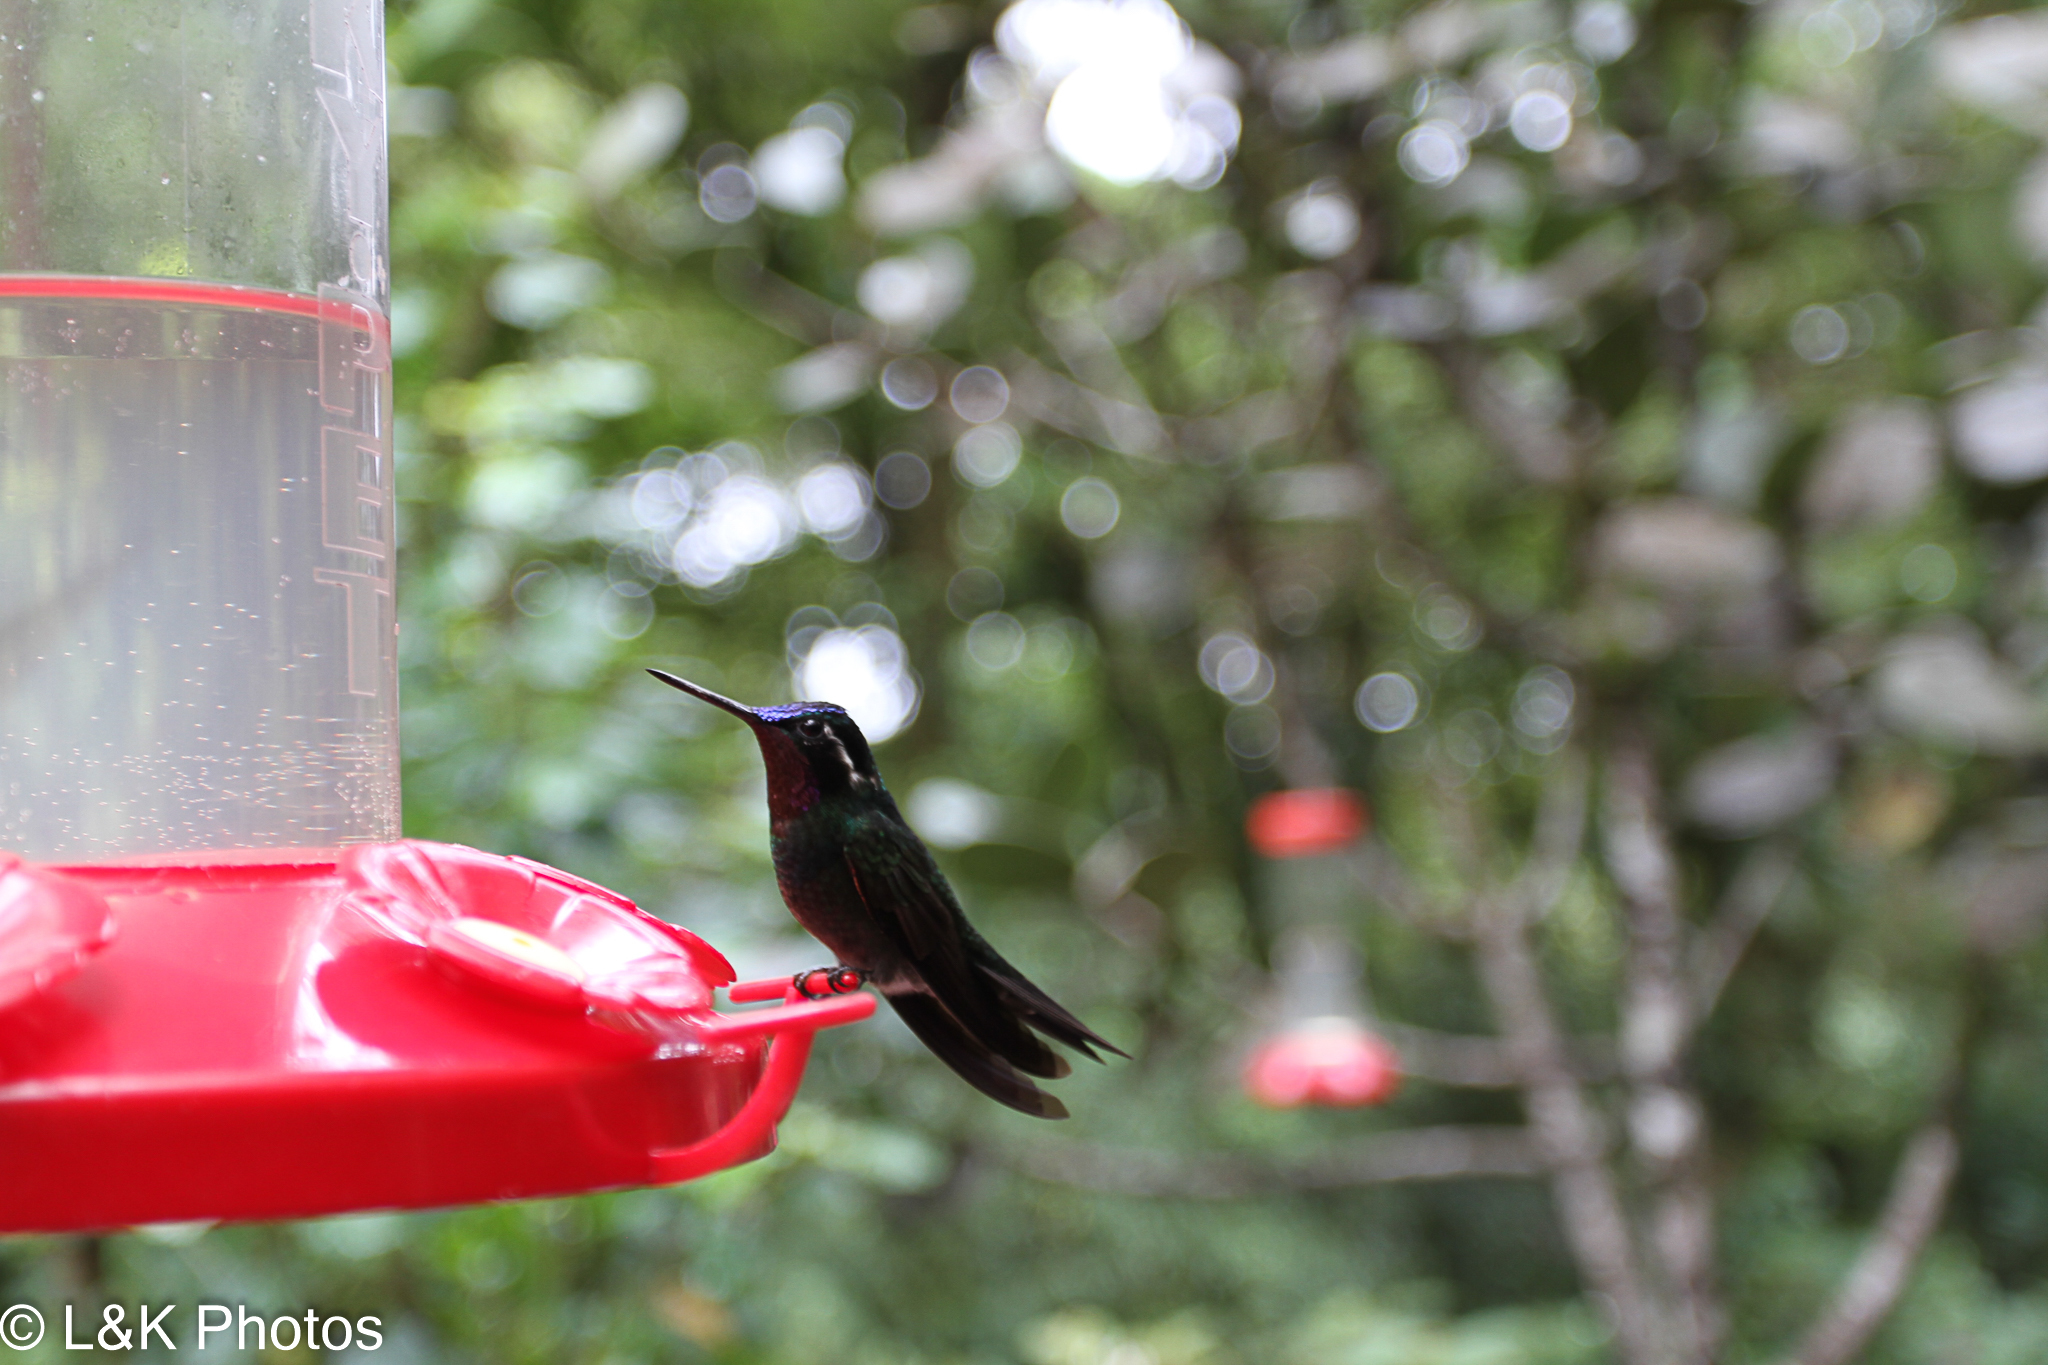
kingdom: Animalia
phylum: Chordata
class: Aves
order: Apodiformes
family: Trochilidae
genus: Lampornis
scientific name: Lampornis calolaemus
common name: Purple-throated mountain-gem
